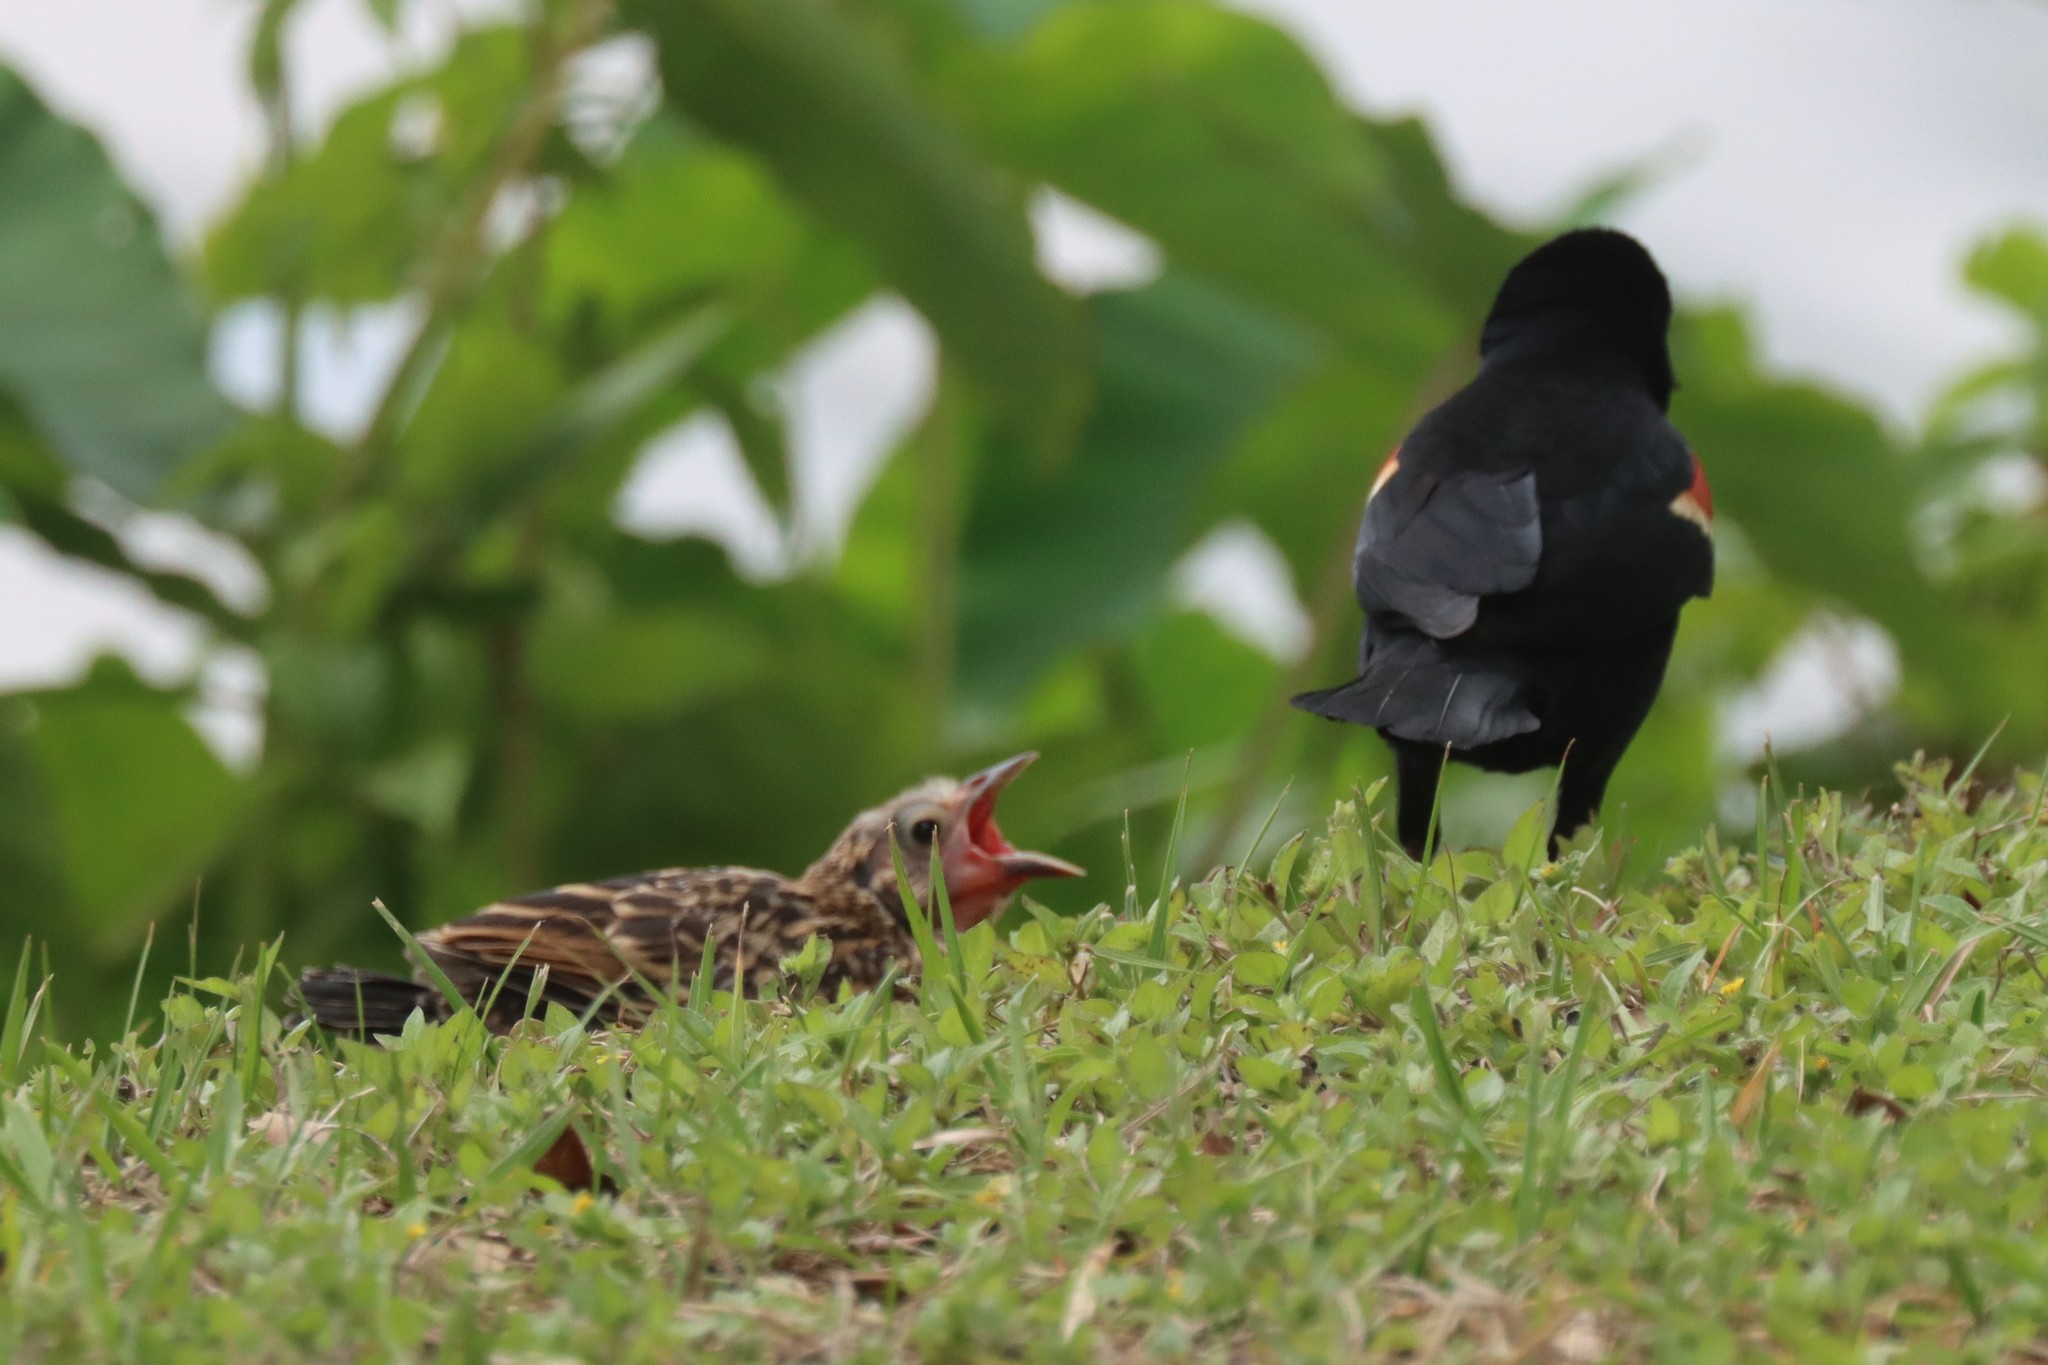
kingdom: Animalia
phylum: Chordata
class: Aves
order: Passeriformes
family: Icteridae
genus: Agelaius
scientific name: Agelaius phoeniceus
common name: Red-winged blackbird
